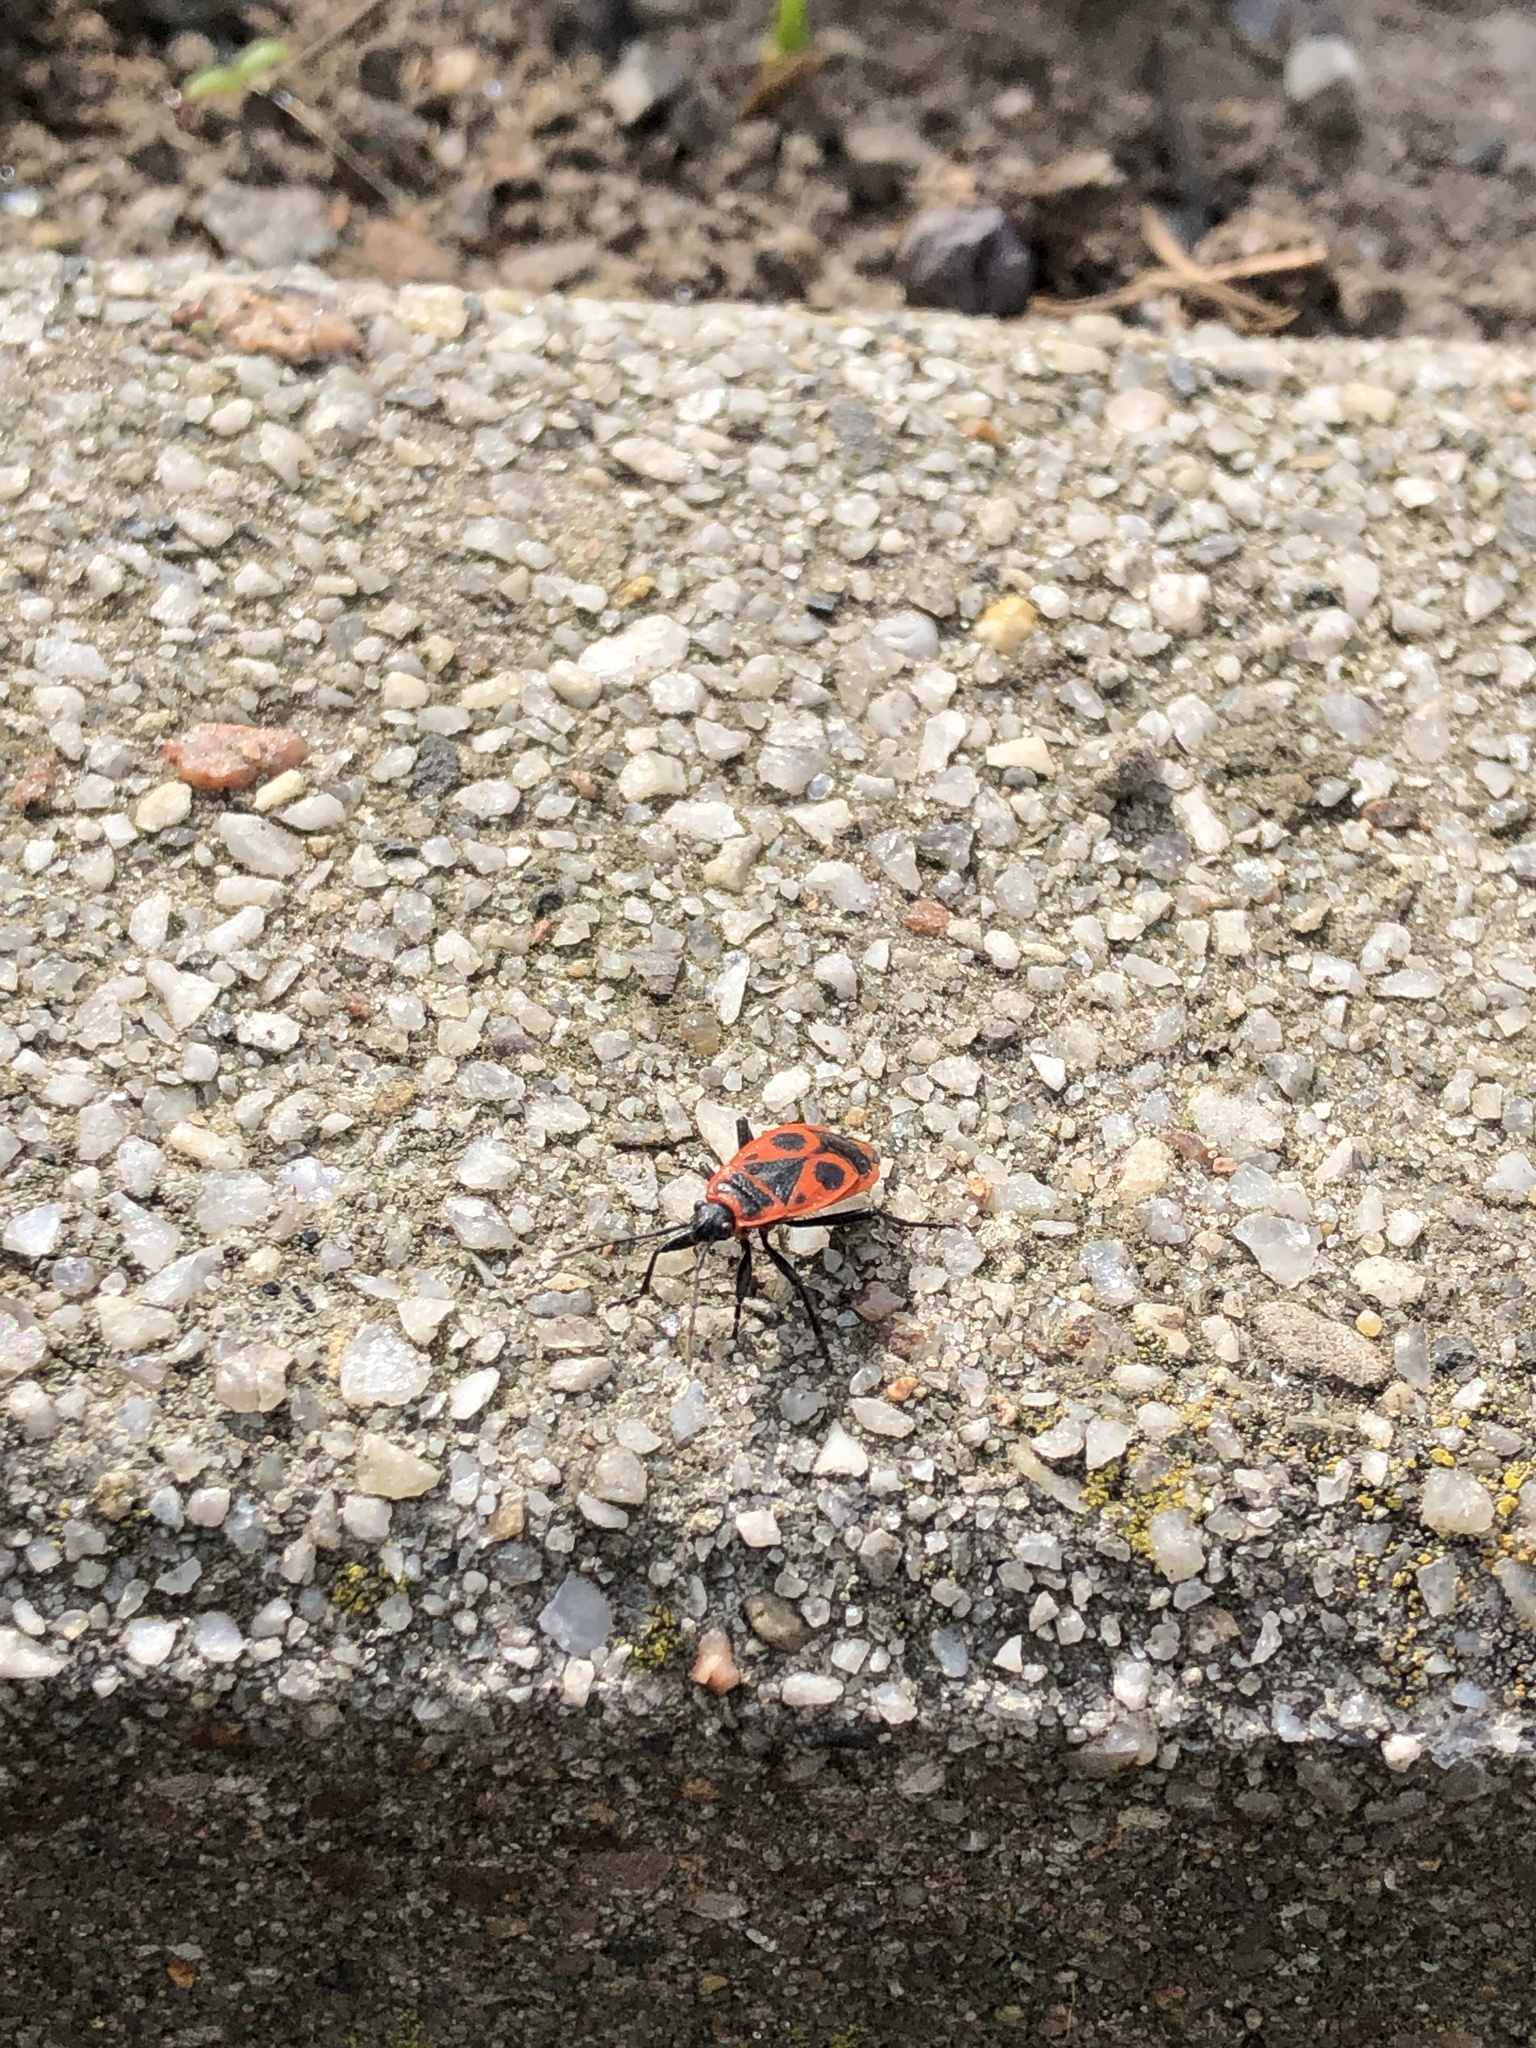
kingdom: Animalia
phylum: Arthropoda
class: Insecta
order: Hemiptera
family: Pyrrhocoridae
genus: Pyrrhocoris
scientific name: Pyrrhocoris apterus
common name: Firebug
